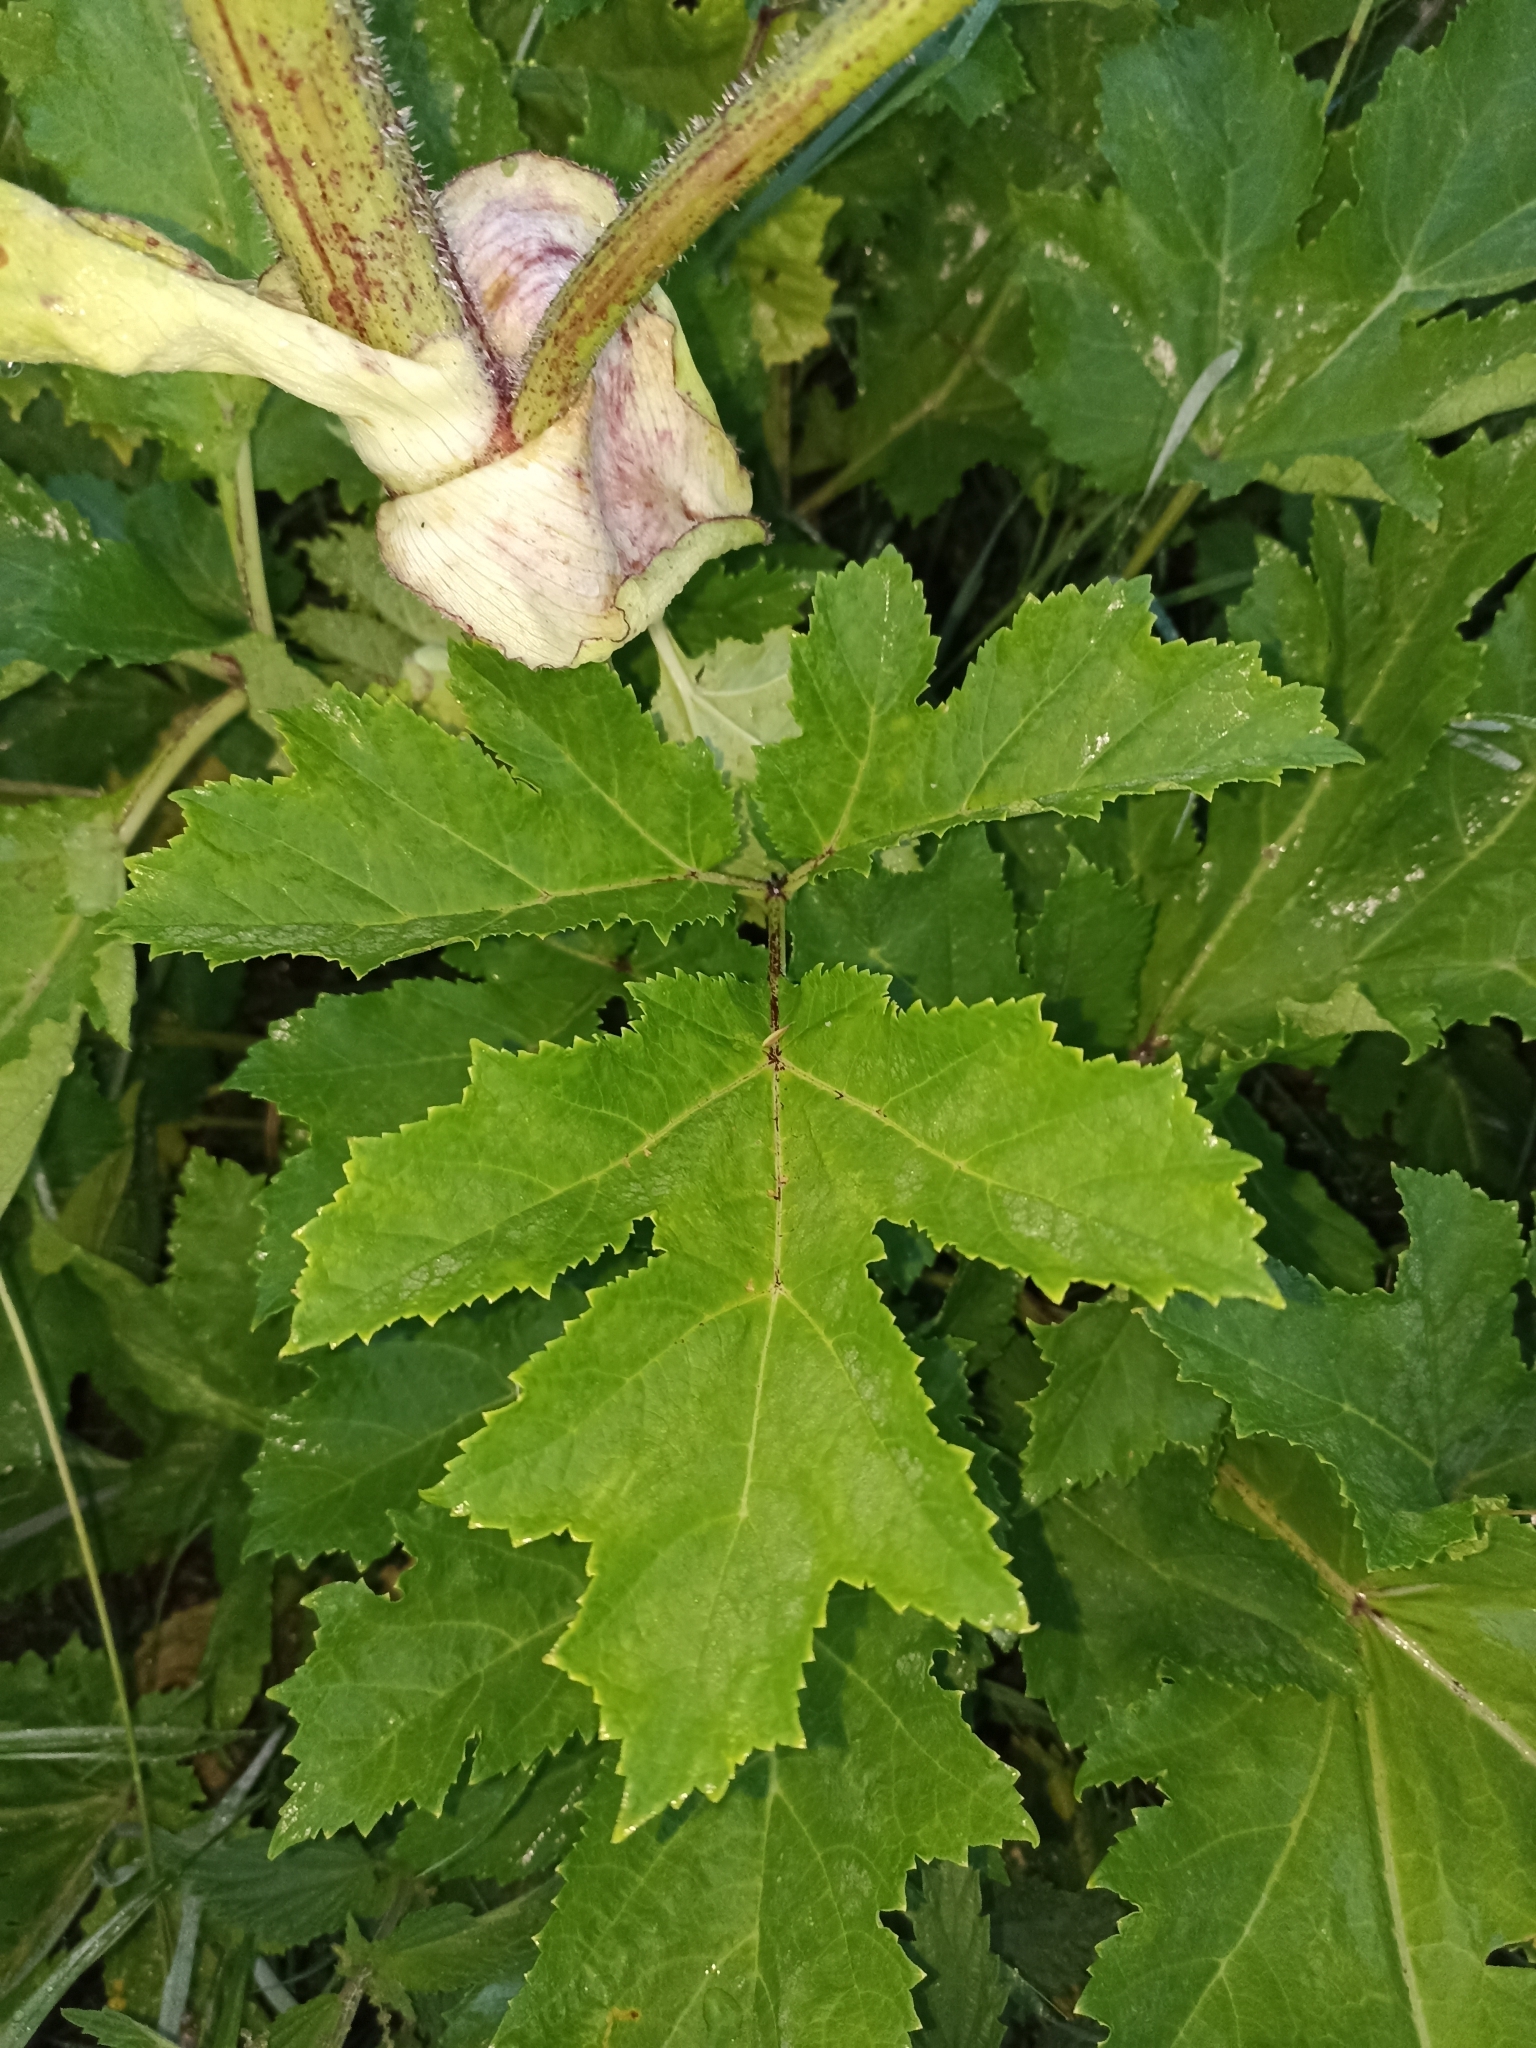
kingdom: Plantae
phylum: Tracheophyta
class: Magnoliopsida
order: Apiales
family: Apiaceae
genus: Heracleum
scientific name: Heracleum sosnowskyi
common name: Sosnowsky's hogweed
